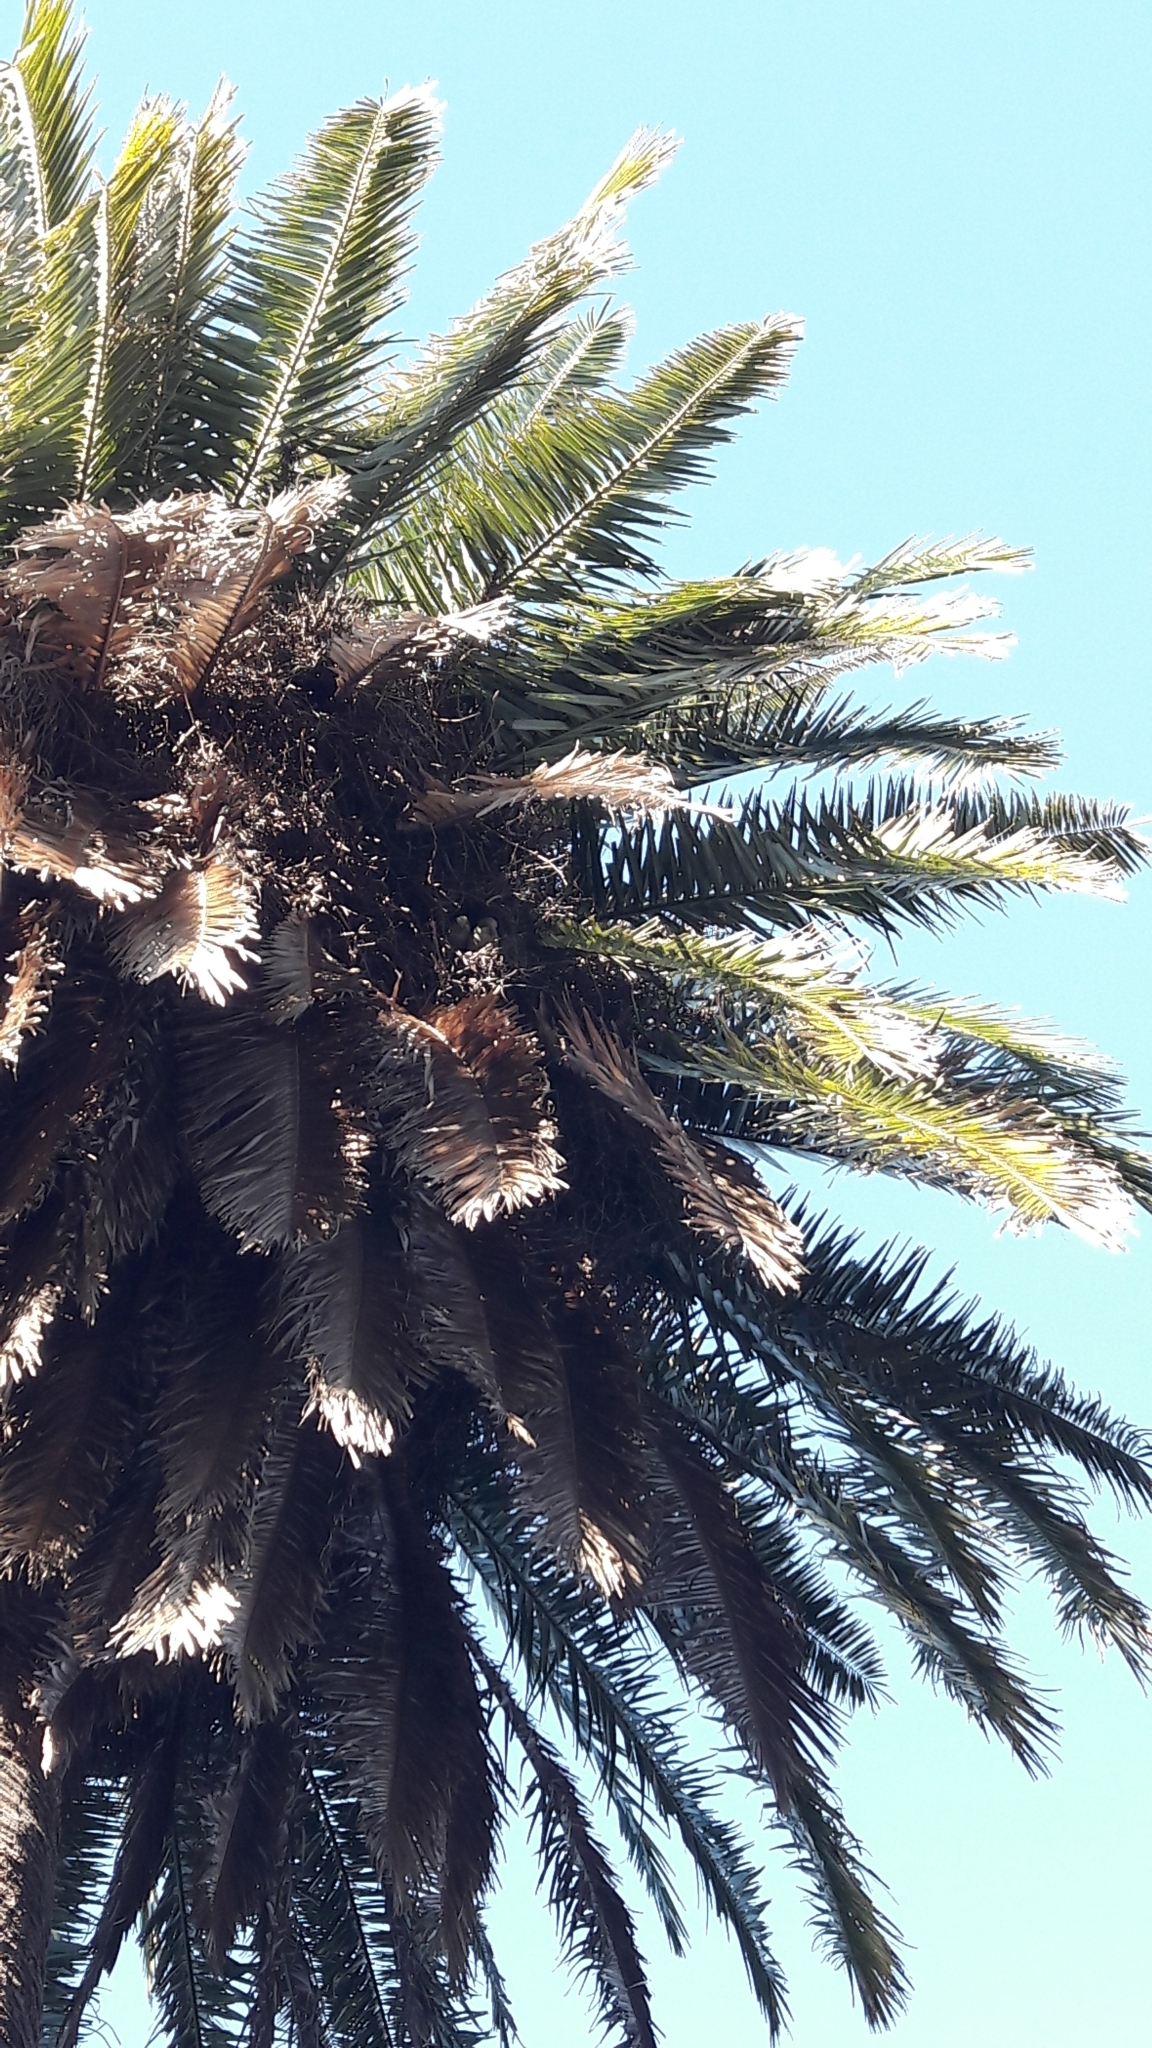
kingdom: Animalia
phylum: Chordata
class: Aves
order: Psittaciformes
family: Psittacidae
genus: Myiopsitta
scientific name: Myiopsitta monachus
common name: Monk parakeet
